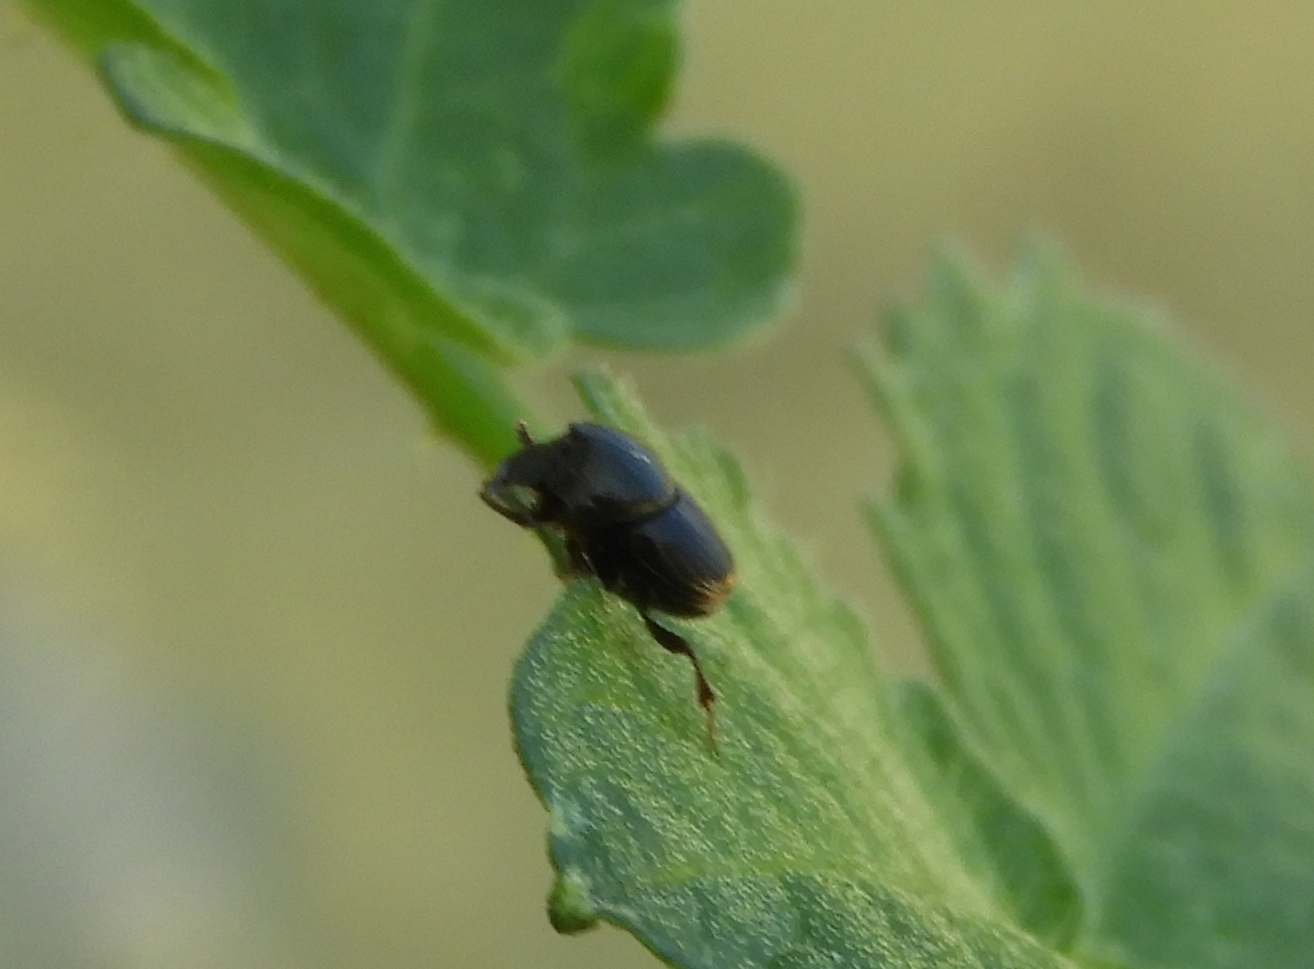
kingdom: Animalia
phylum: Arthropoda
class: Insecta
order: Coleoptera
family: Scarabaeidae
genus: Onthophagus
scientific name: Onthophagus
